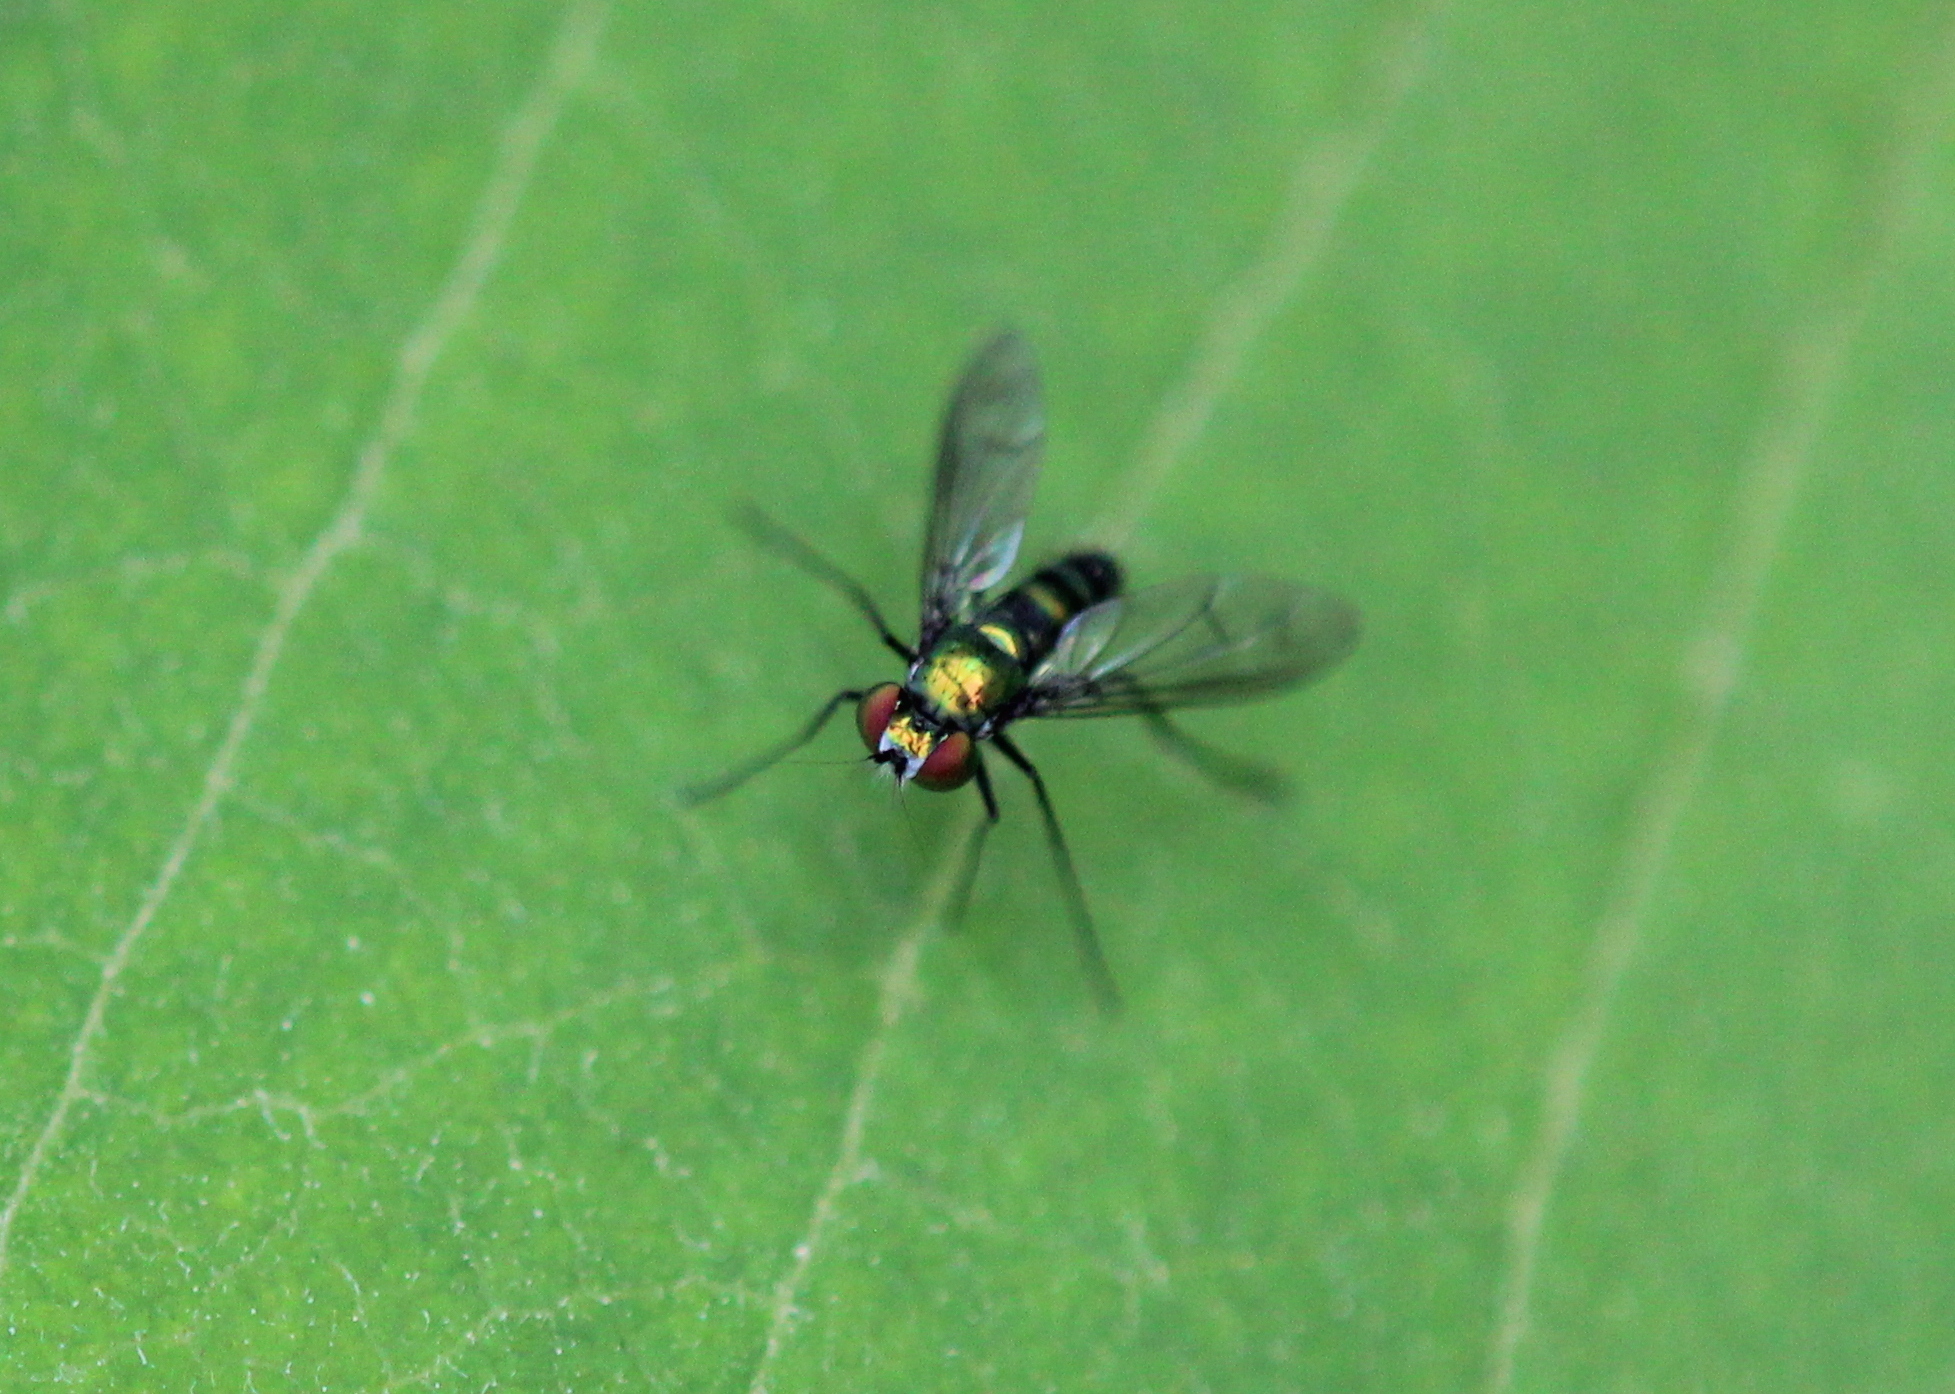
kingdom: Animalia
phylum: Arthropoda
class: Insecta
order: Diptera
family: Dolichopodidae
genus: Condylostylus
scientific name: Condylostylus patibulatus
